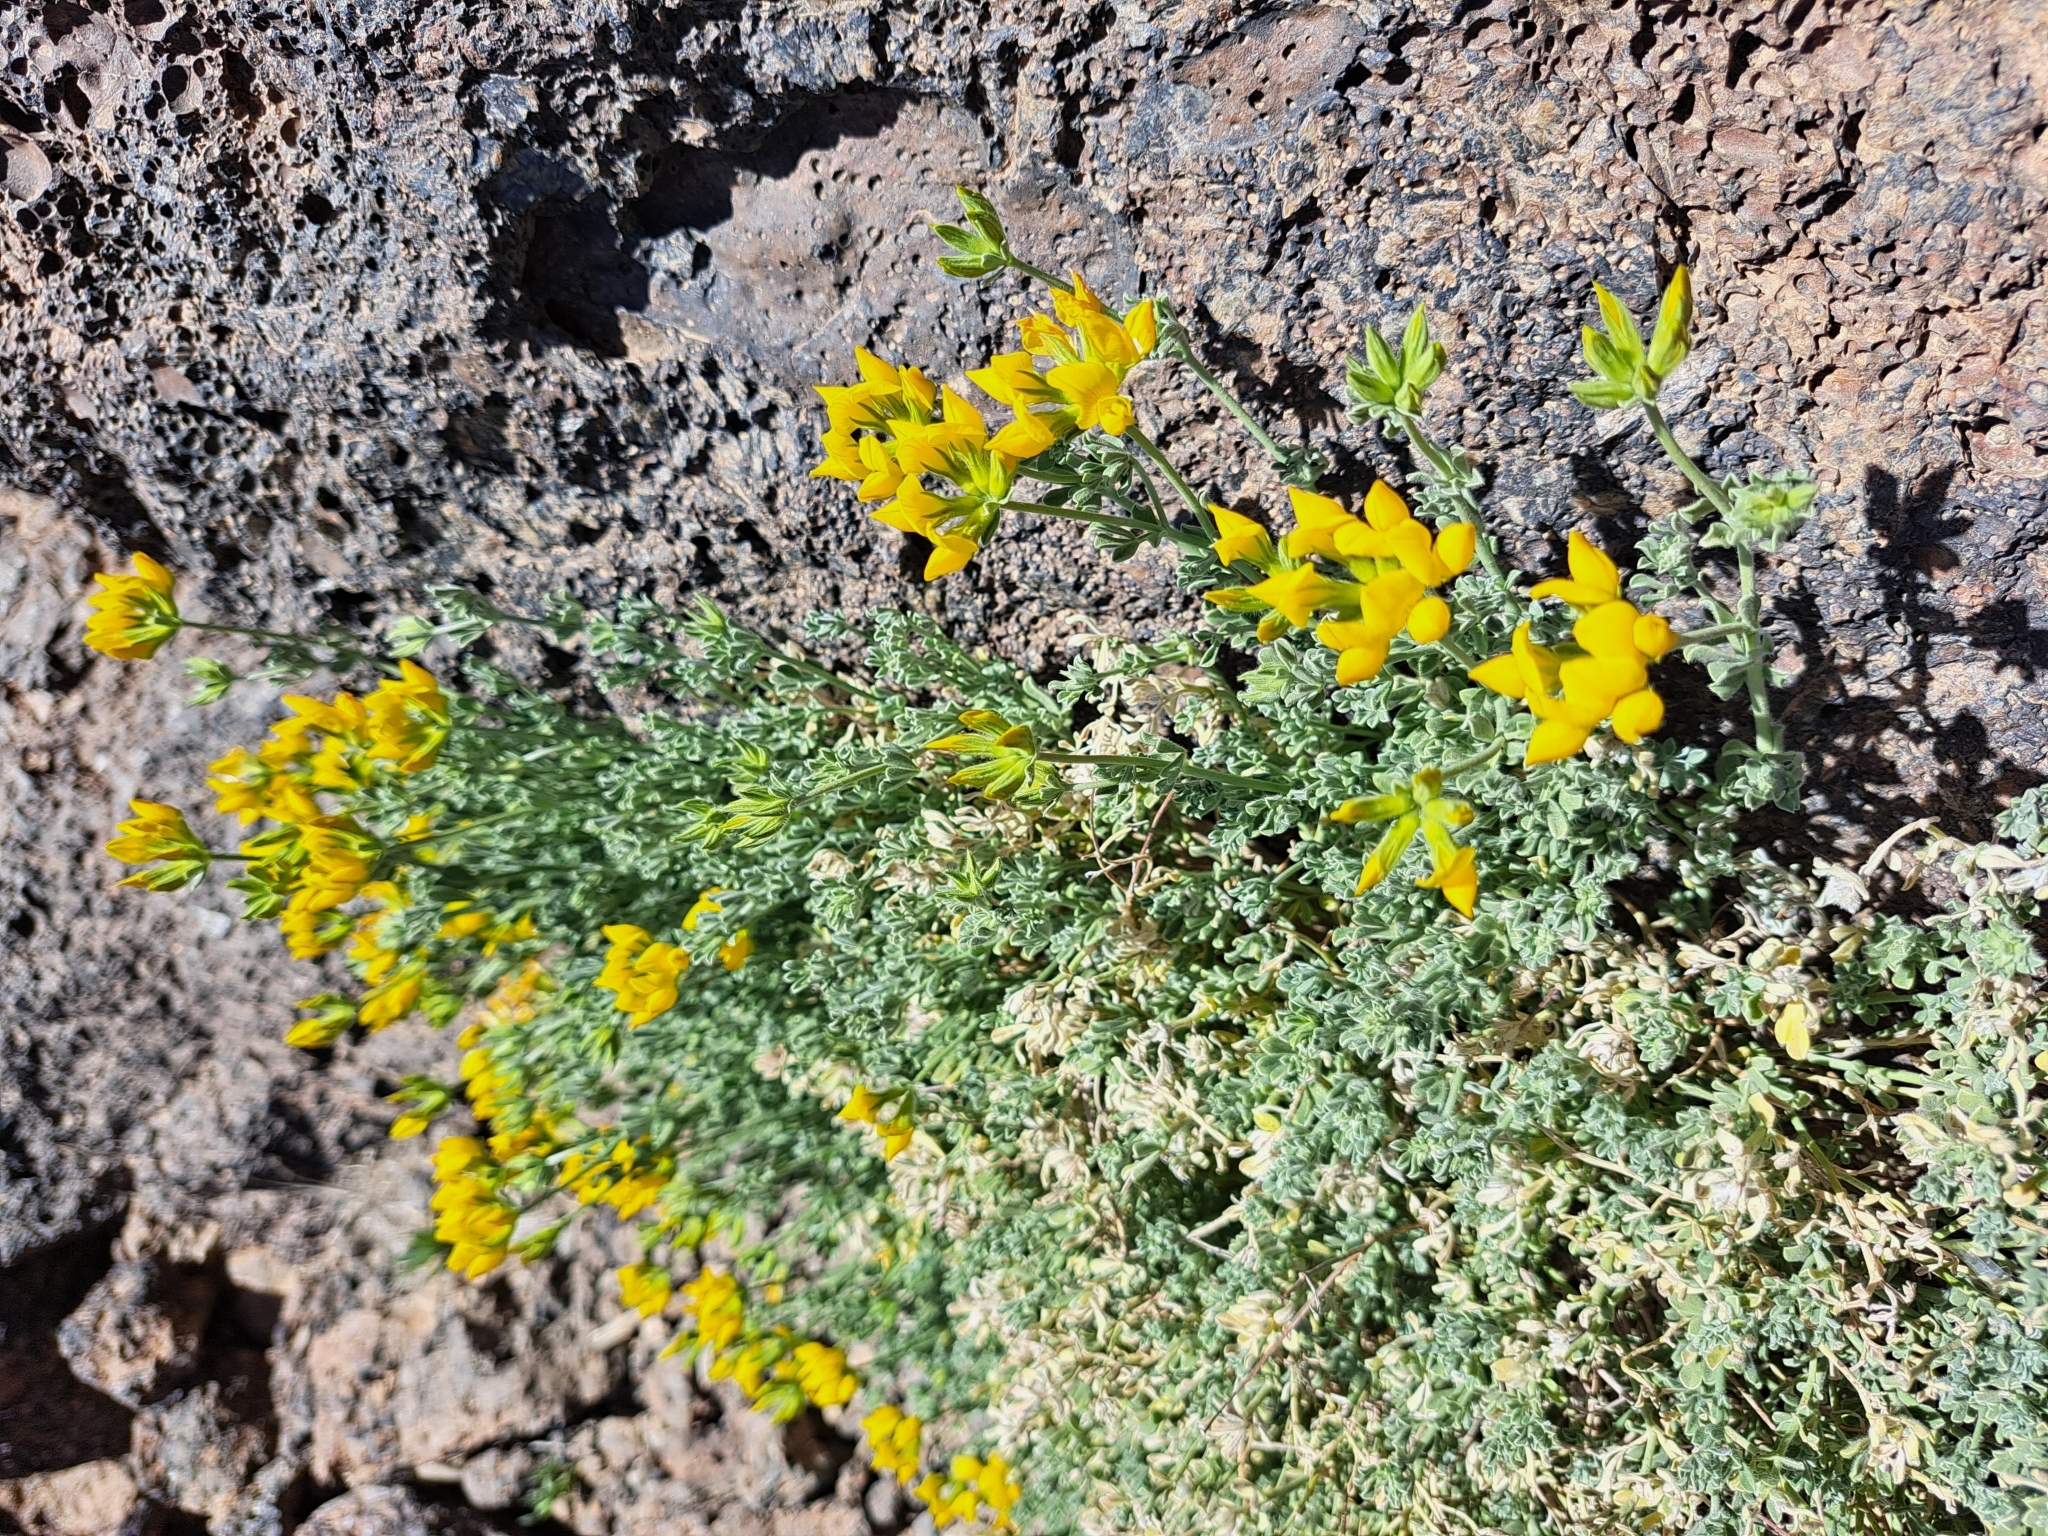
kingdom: Plantae
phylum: Tracheophyta
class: Magnoliopsida
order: Fabales
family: Fabaceae
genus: Lotus
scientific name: Lotus campylocladus
